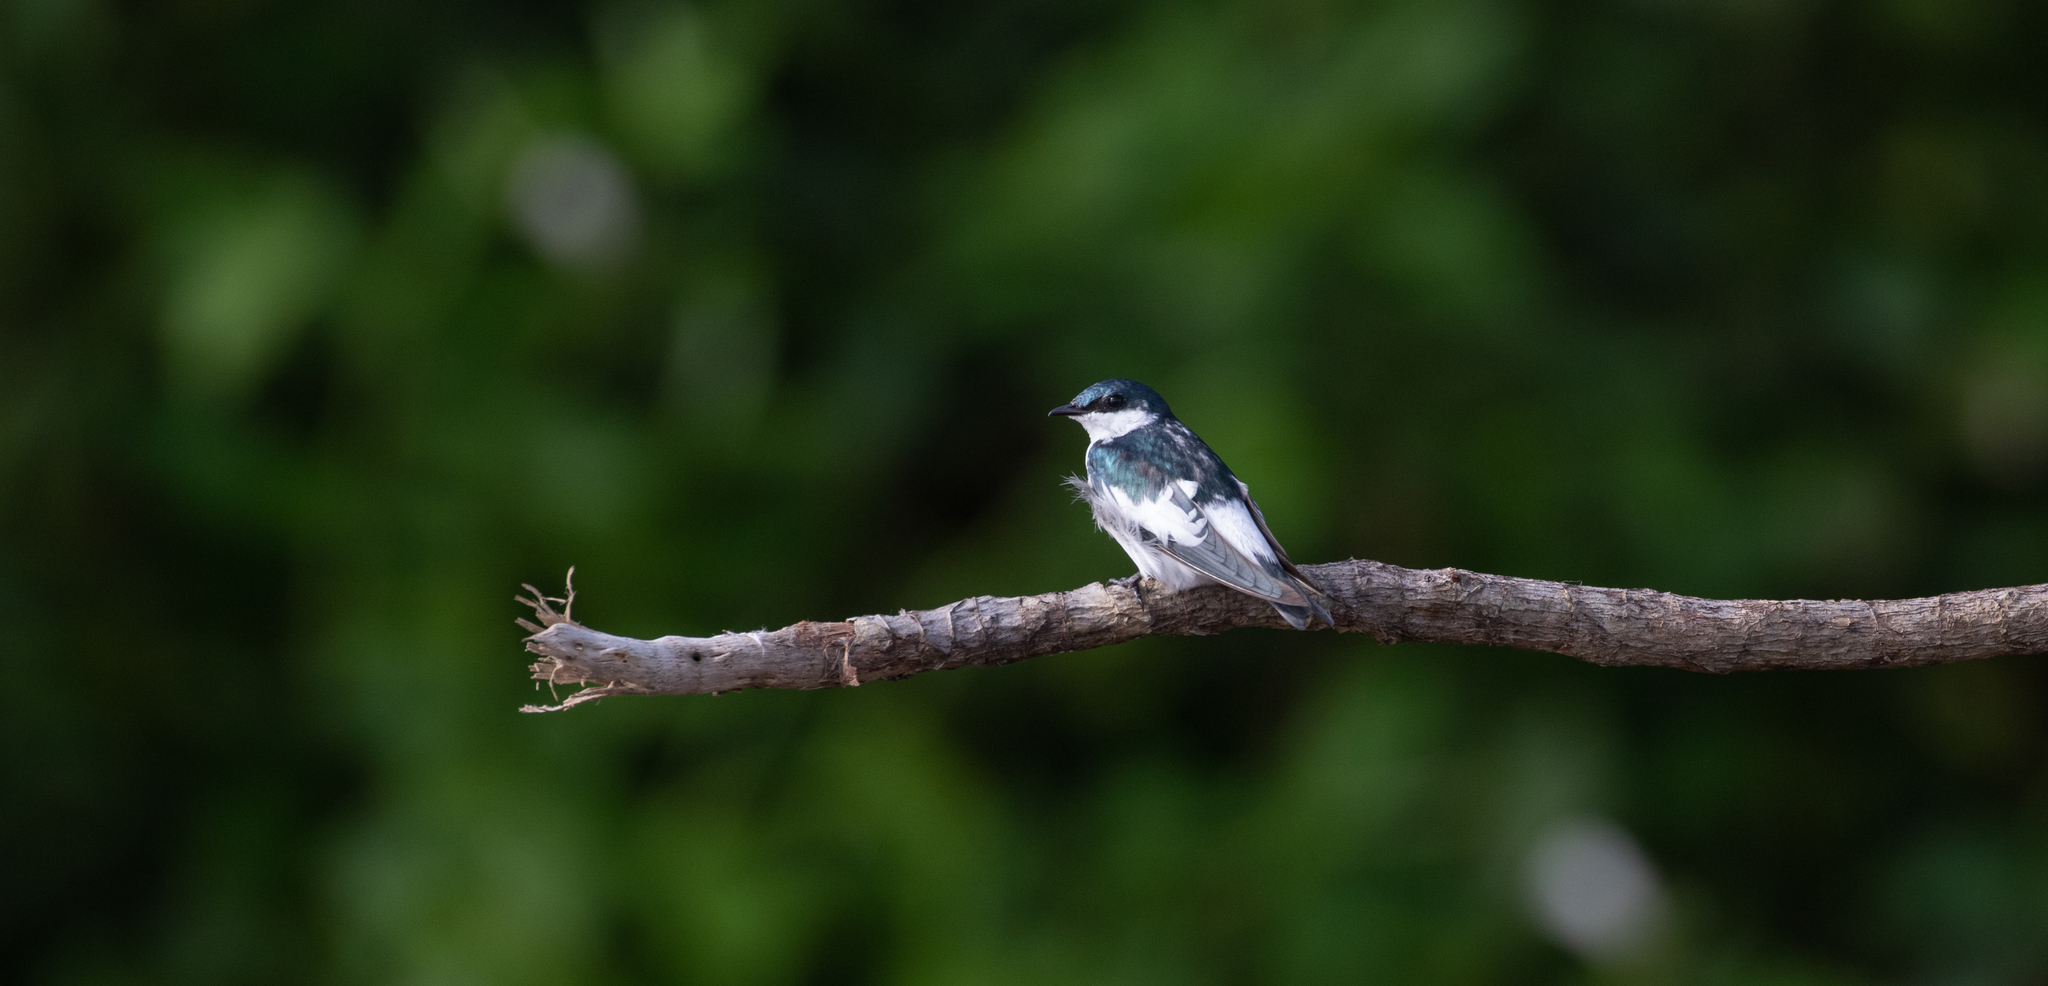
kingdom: Animalia
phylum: Chordata
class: Aves
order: Passeriformes
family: Hirundinidae
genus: Tachycineta
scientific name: Tachycineta albiventer
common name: White-winged swallow
